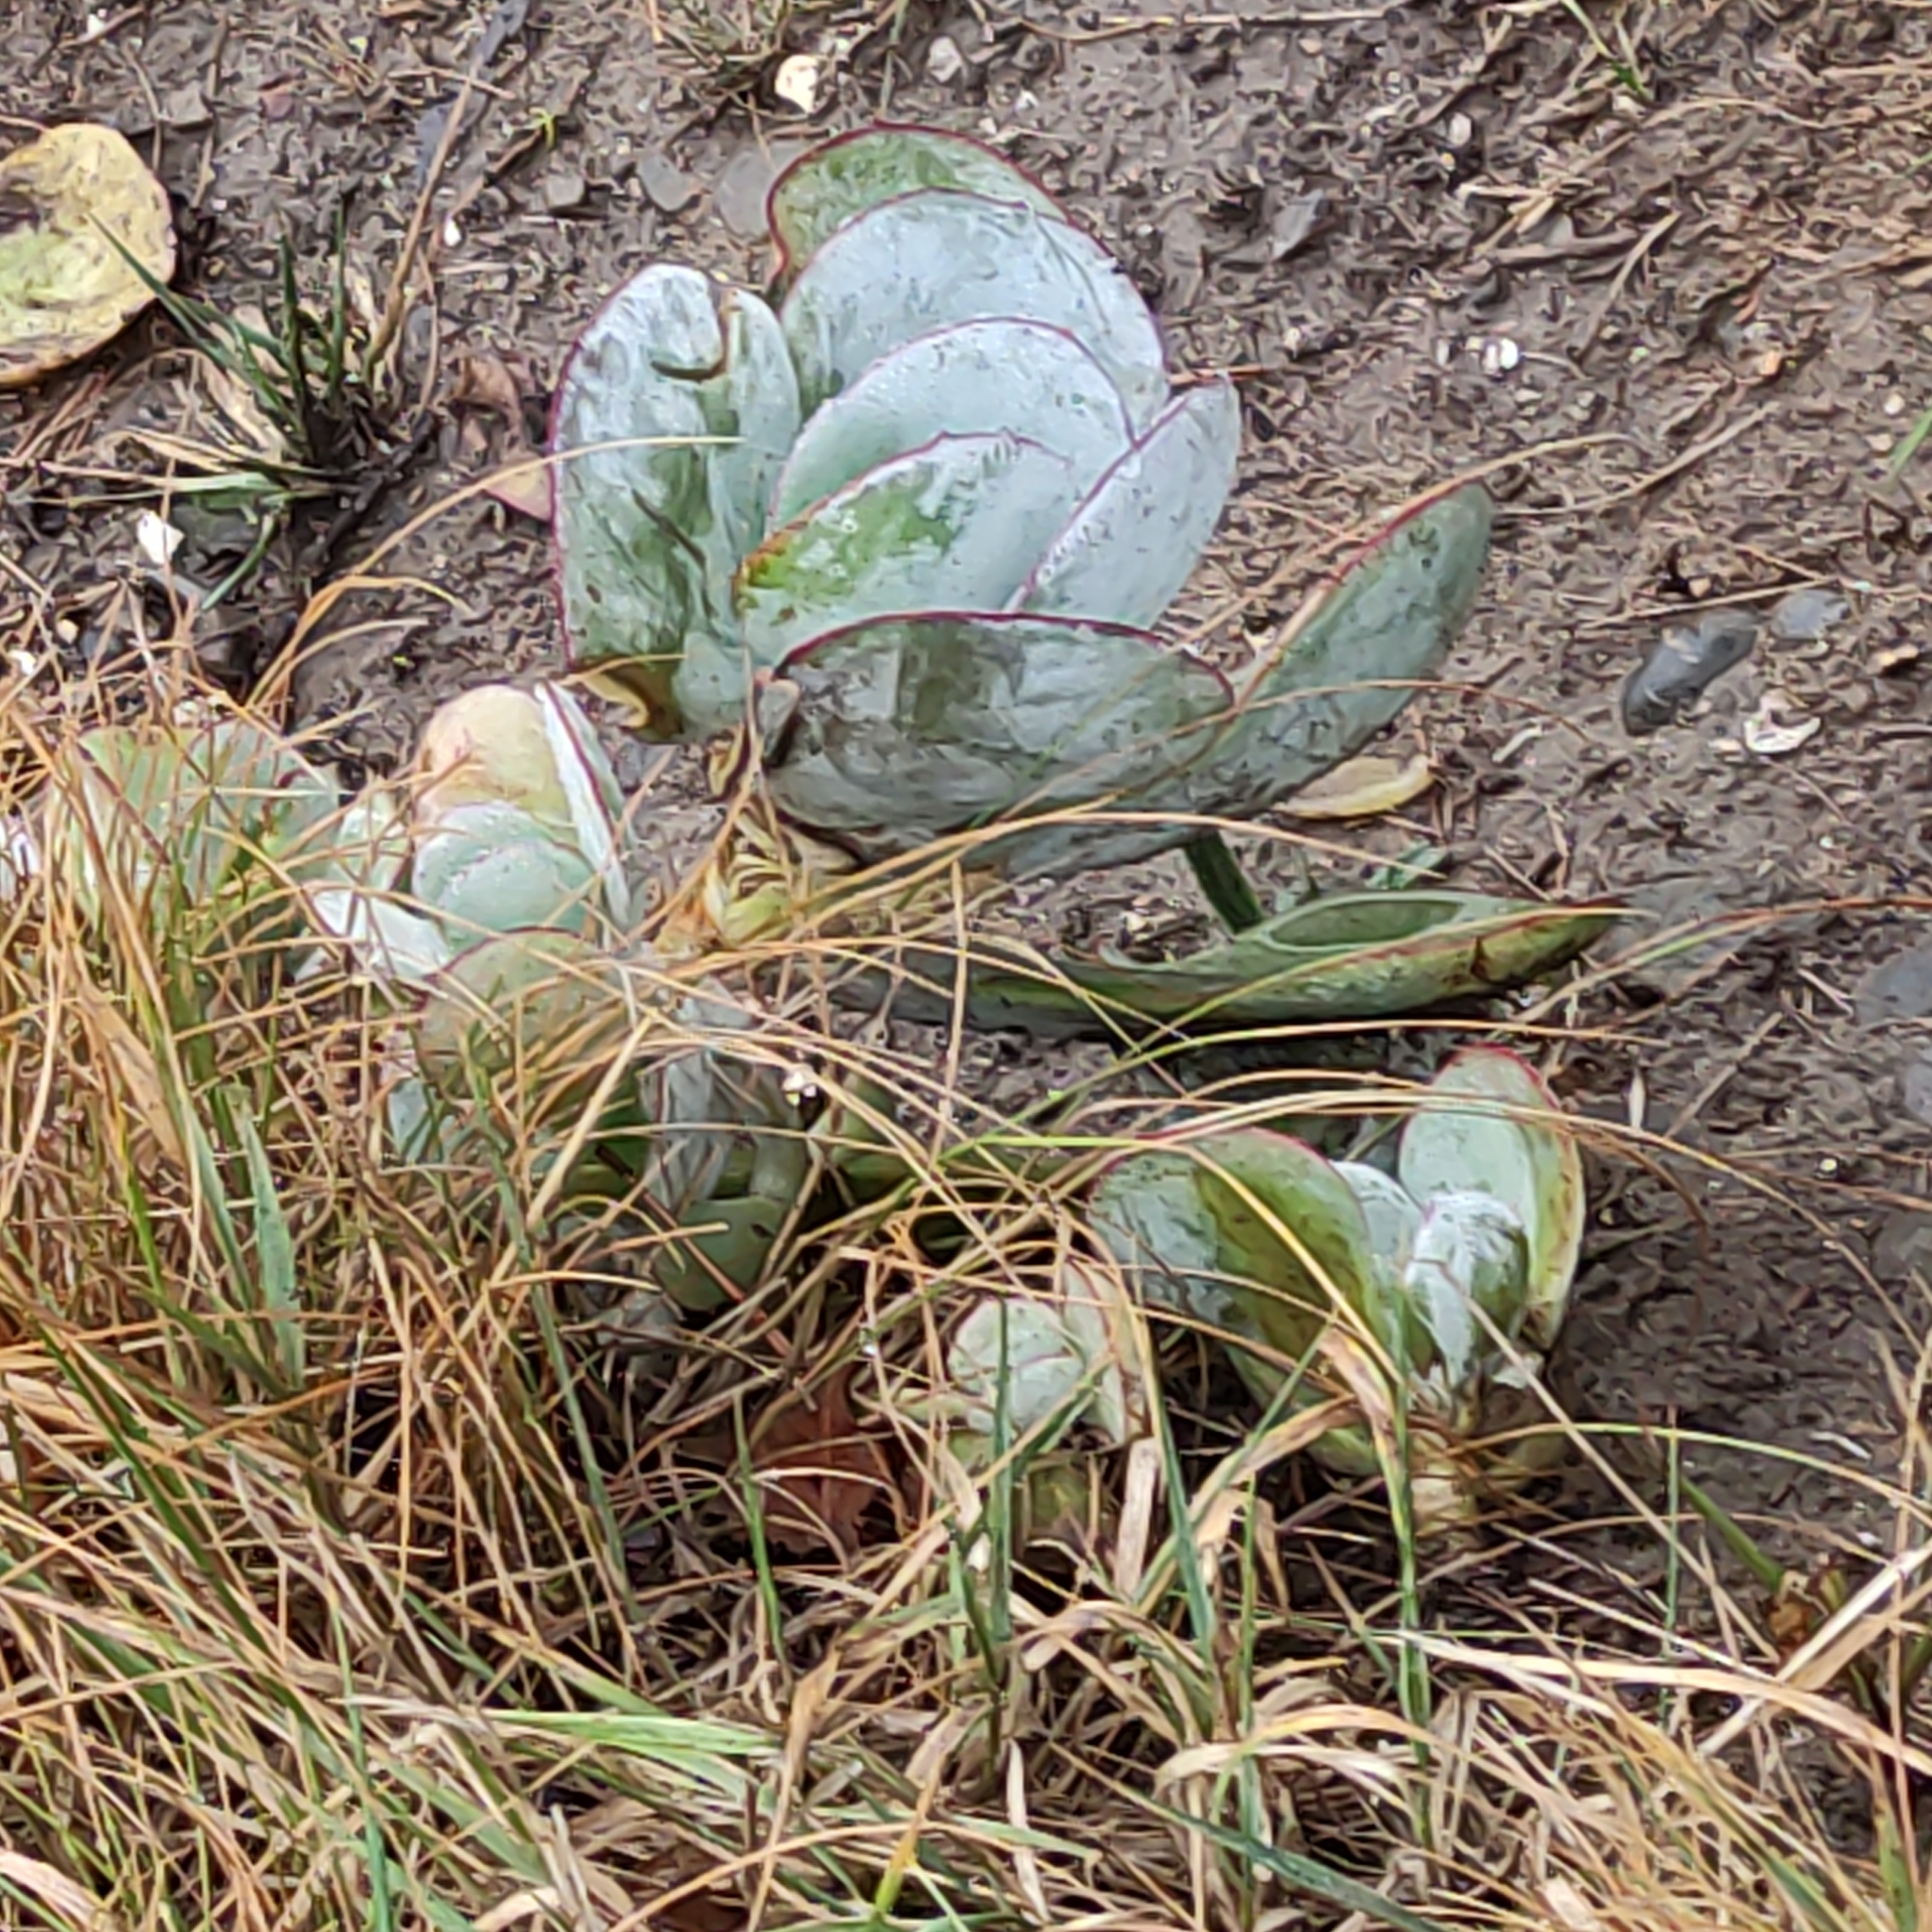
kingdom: Plantae
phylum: Tracheophyta
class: Magnoliopsida
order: Saxifragales
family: Crassulaceae
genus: Cotyledon
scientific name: Cotyledon orbiculata
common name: Pig's ear
